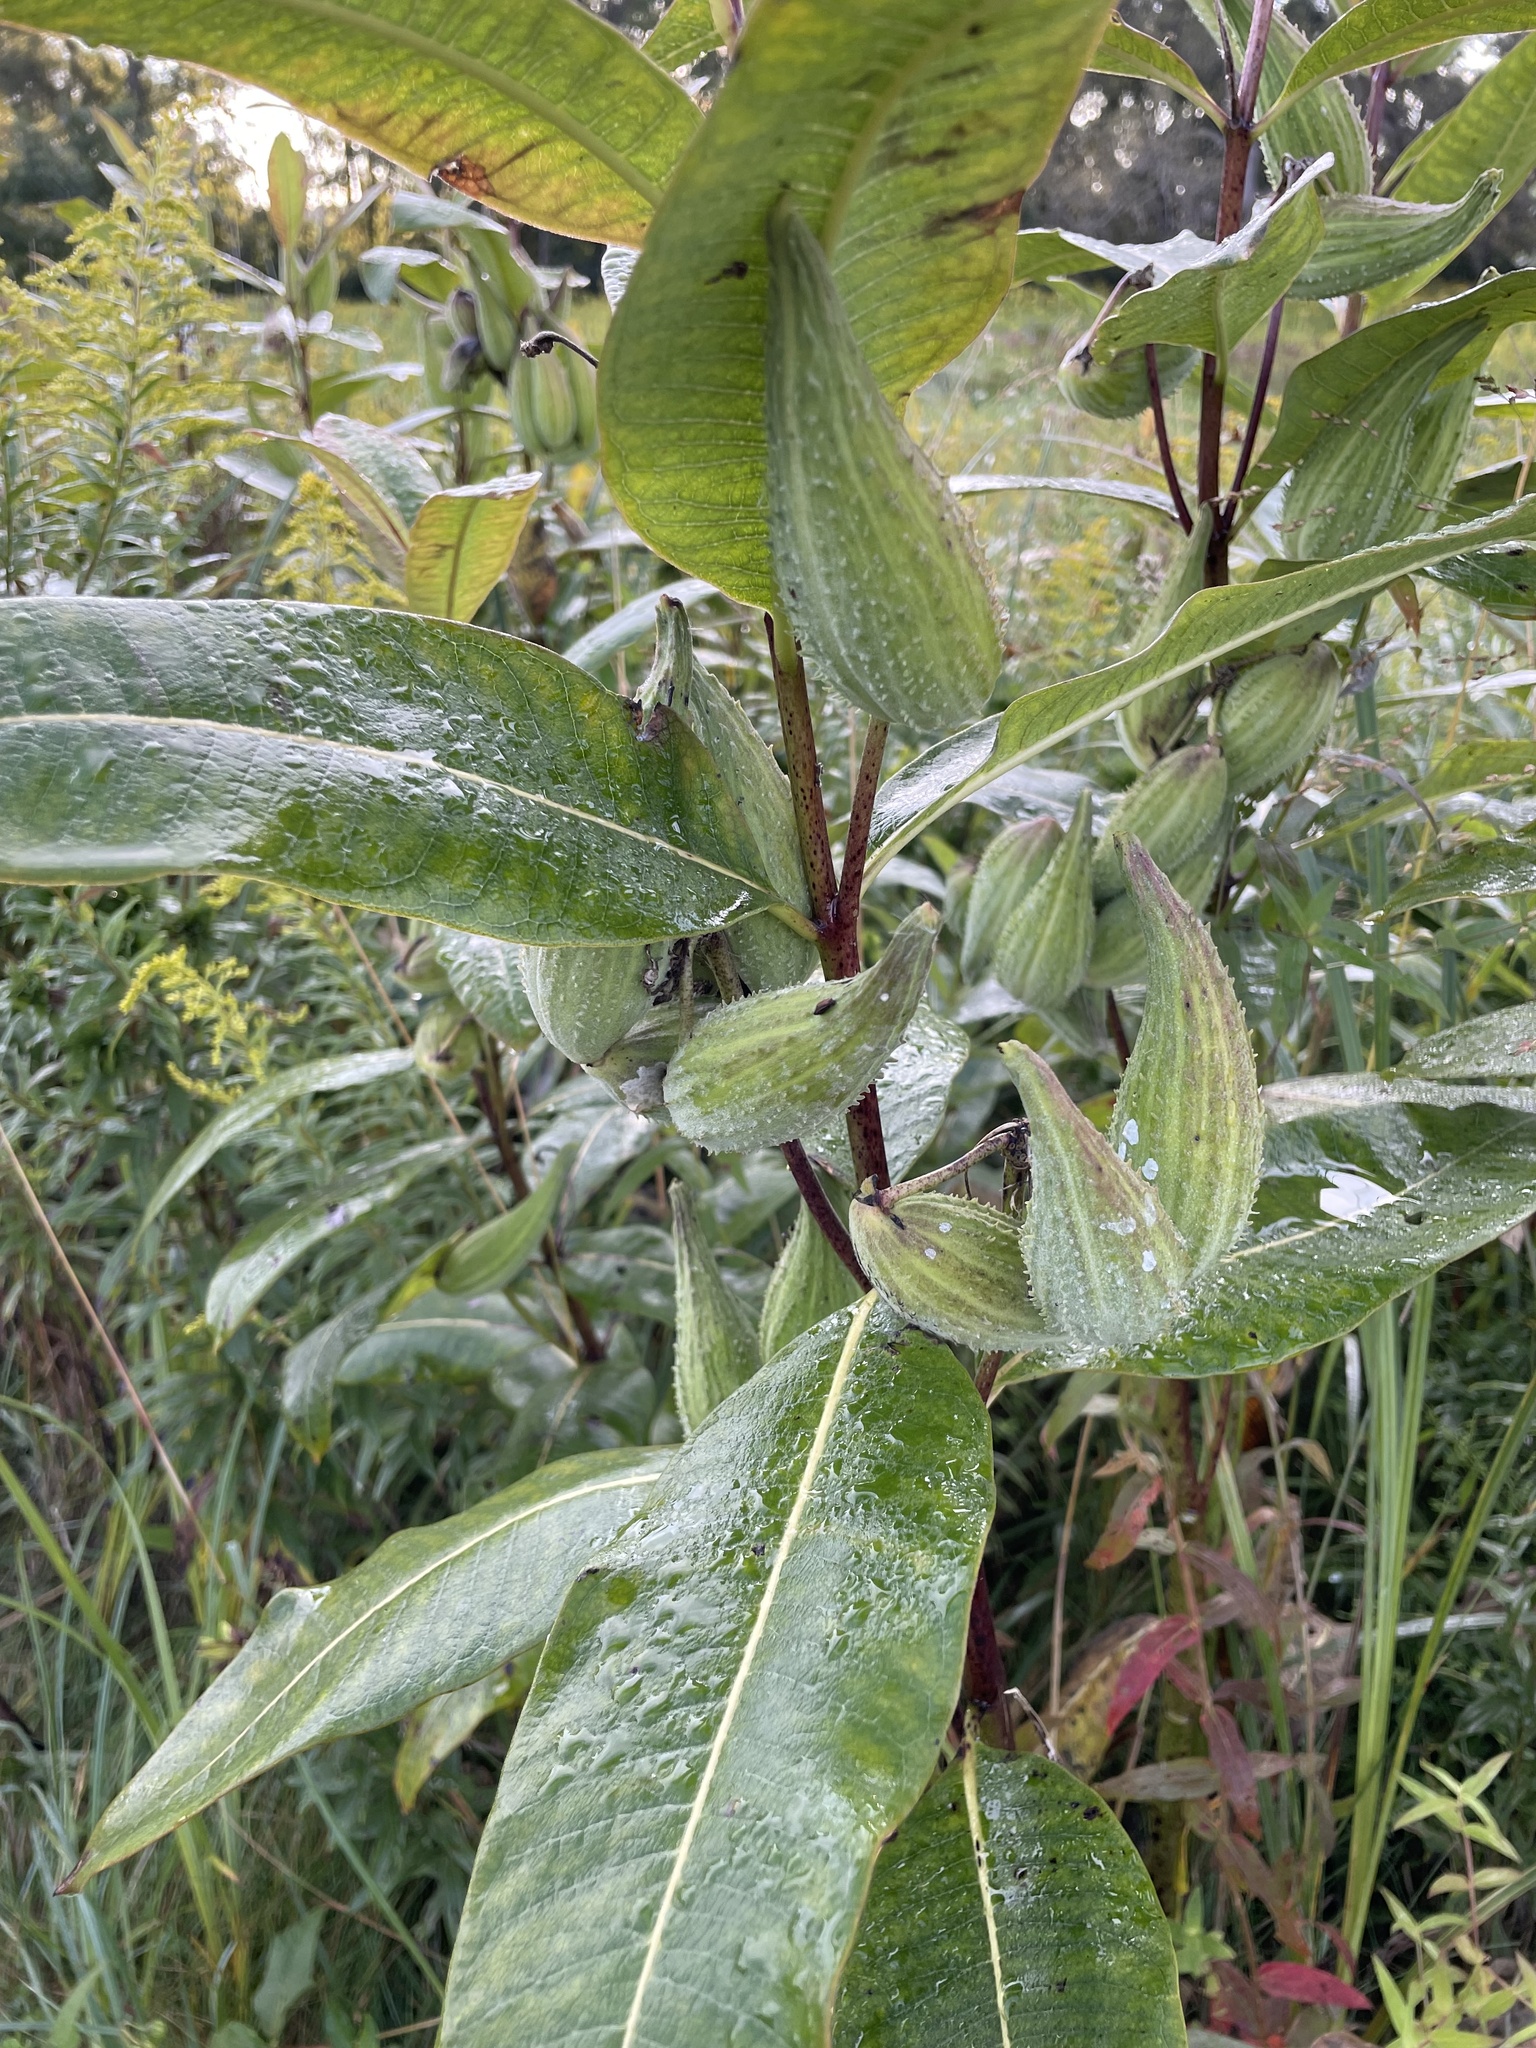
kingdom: Plantae
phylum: Tracheophyta
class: Magnoliopsida
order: Gentianales
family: Apocynaceae
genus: Asclepias
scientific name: Asclepias syriaca
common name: Common milkweed
